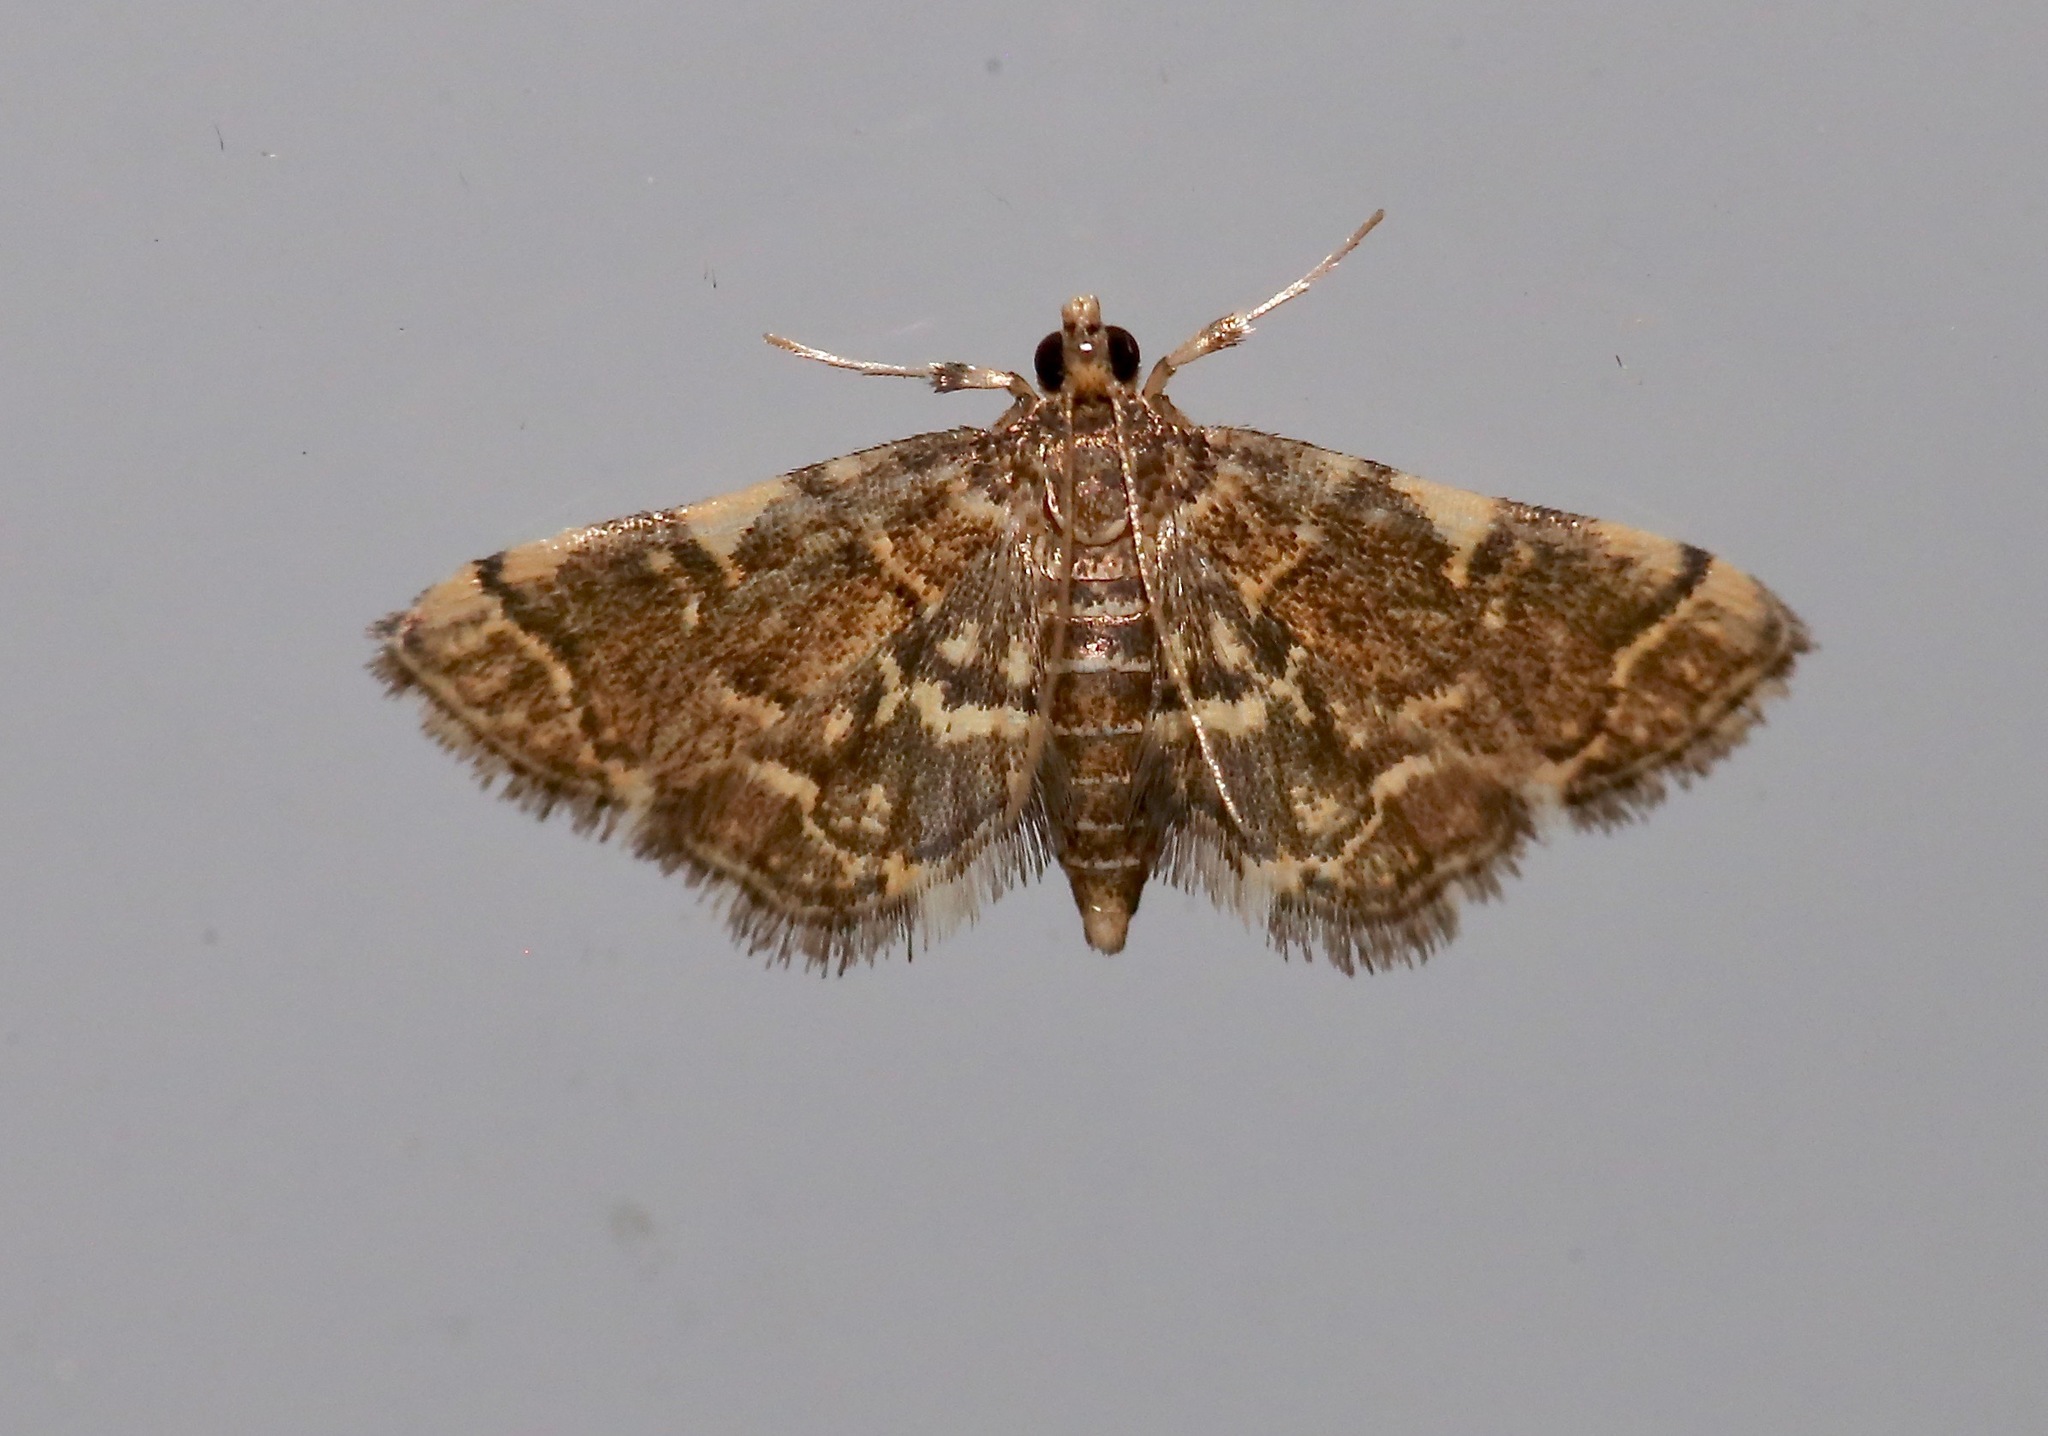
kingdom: Animalia
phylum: Arthropoda
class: Insecta
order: Lepidoptera
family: Crambidae
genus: Anageshna
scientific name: Anageshna primordialis
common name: Yellow-spotted webworm moth
